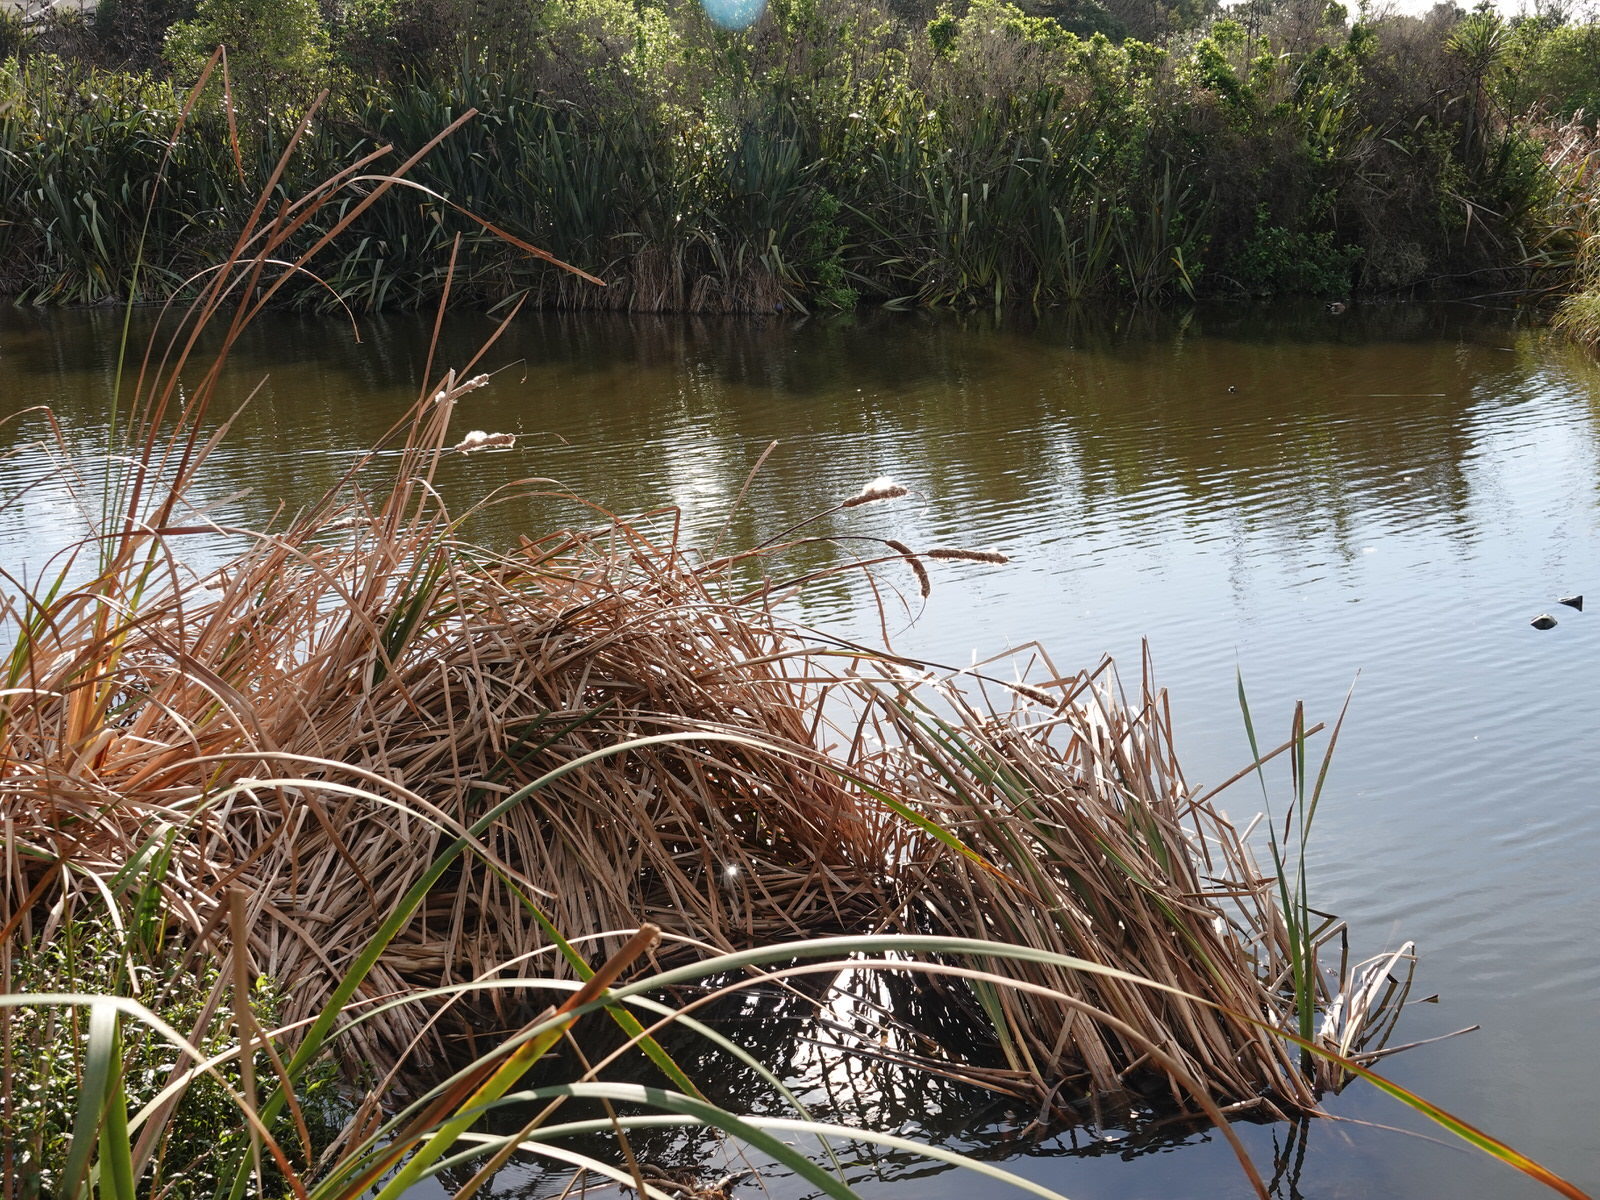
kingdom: Plantae
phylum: Tracheophyta
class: Liliopsida
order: Poales
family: Typhaceae
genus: Typha
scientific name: Typha orientalis
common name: Bullrush
